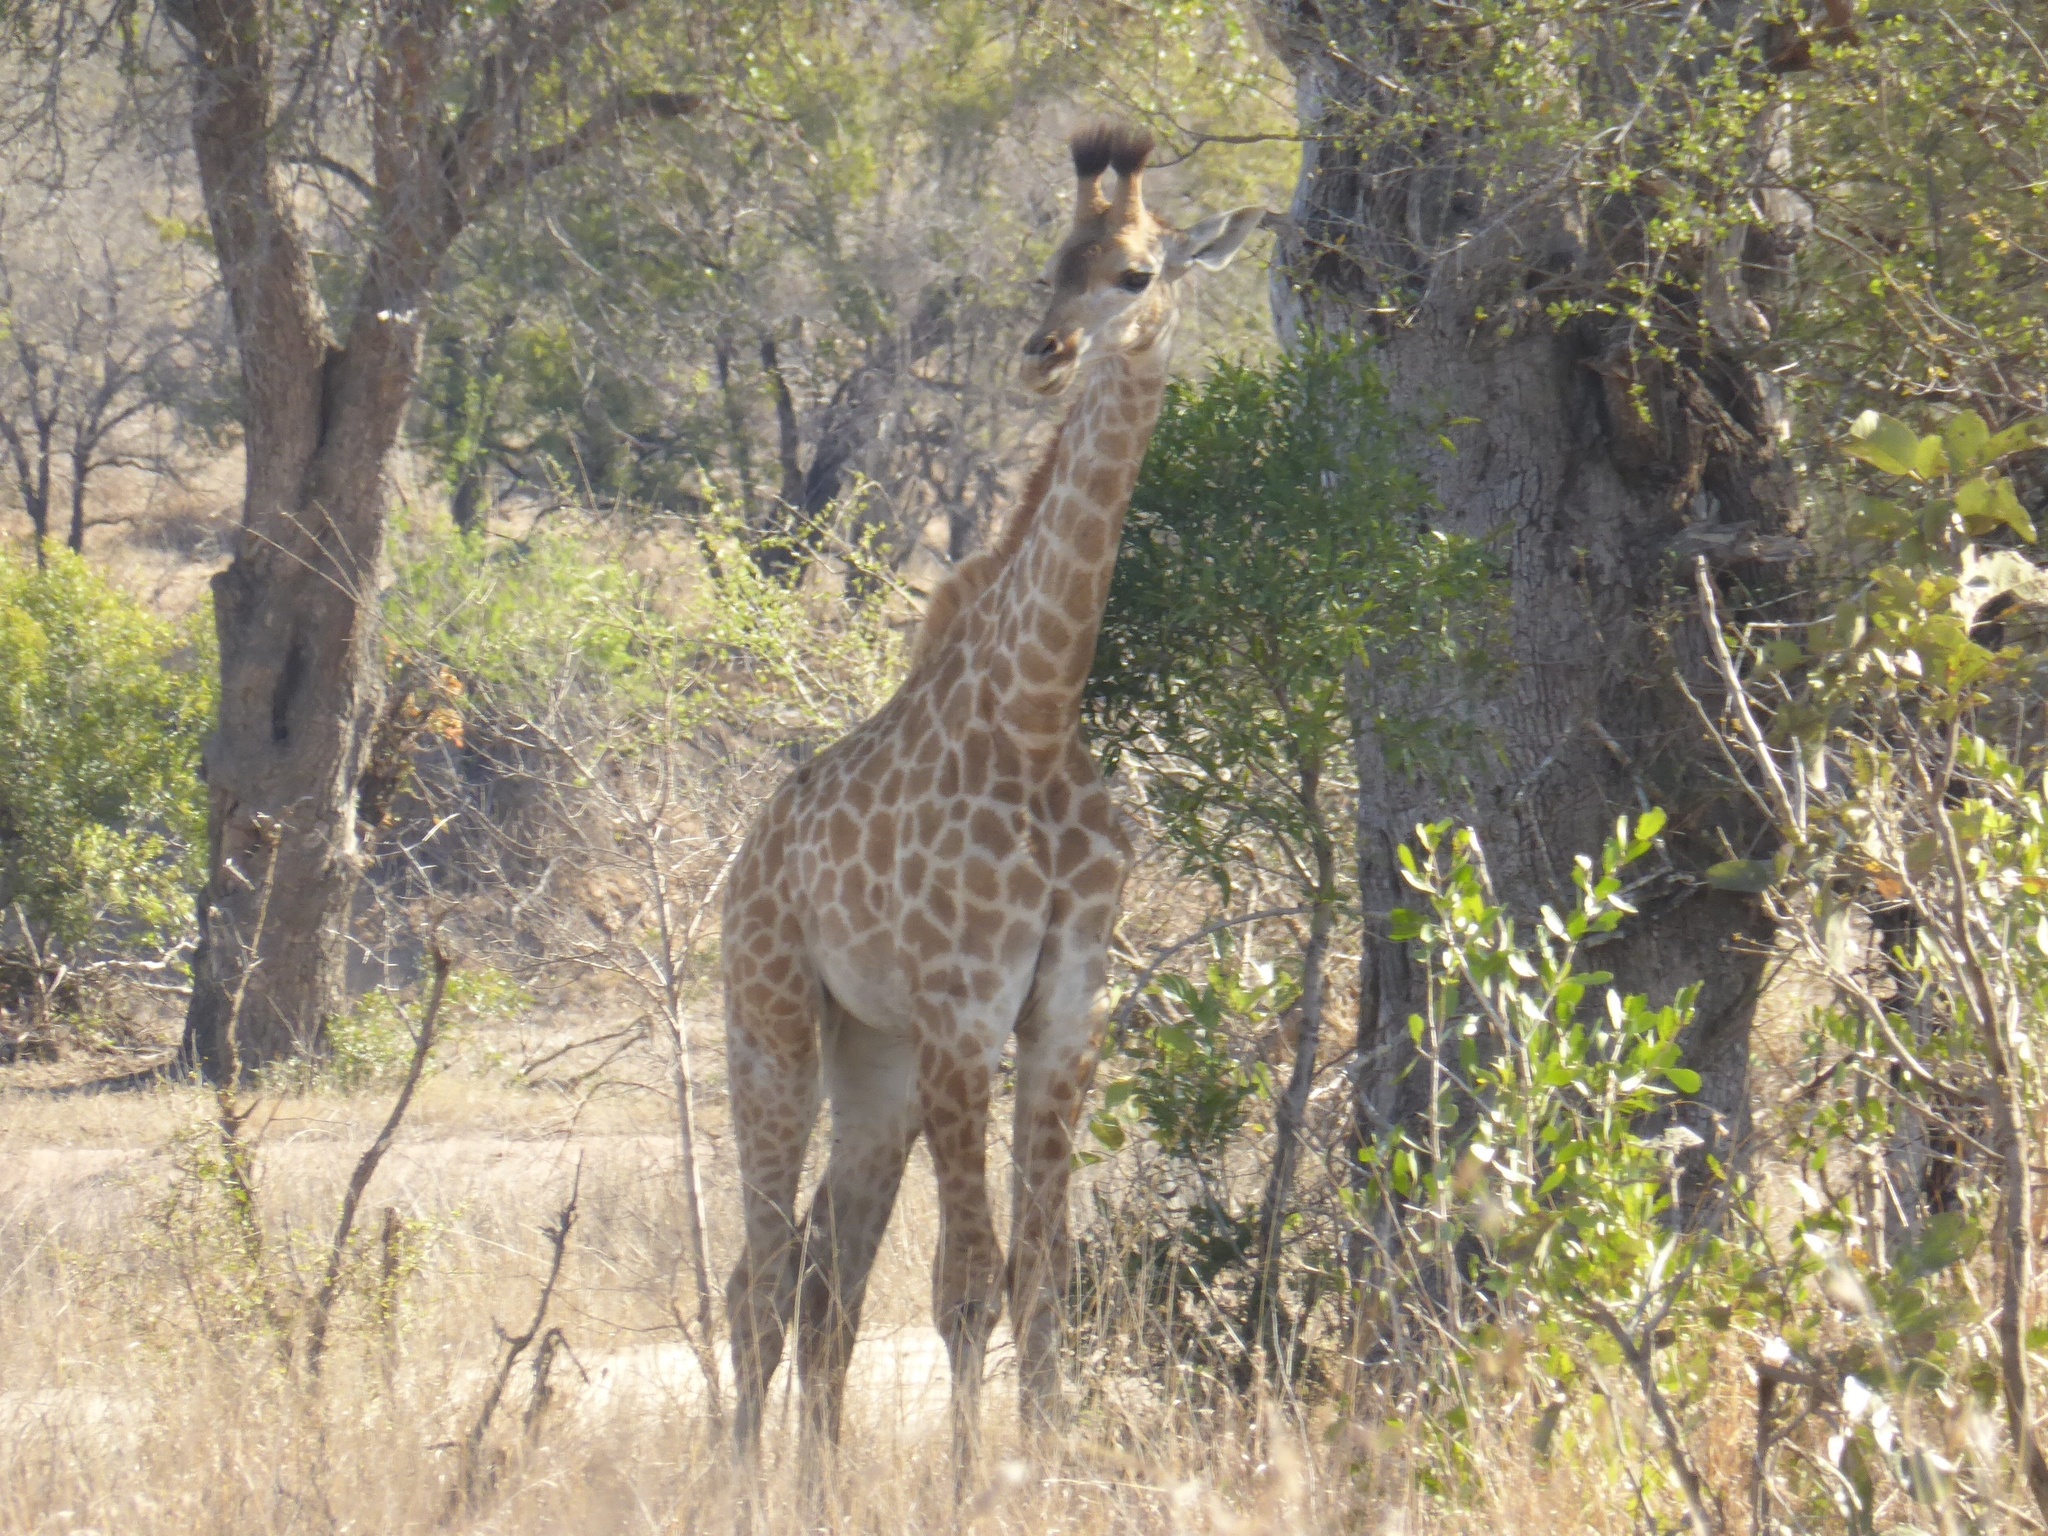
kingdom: Animalia
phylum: Chordata
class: Mammalia
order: Artiodactyla
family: Giraffidae
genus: Giraffa
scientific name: Giraffa giraffa
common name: Southern giraffe
